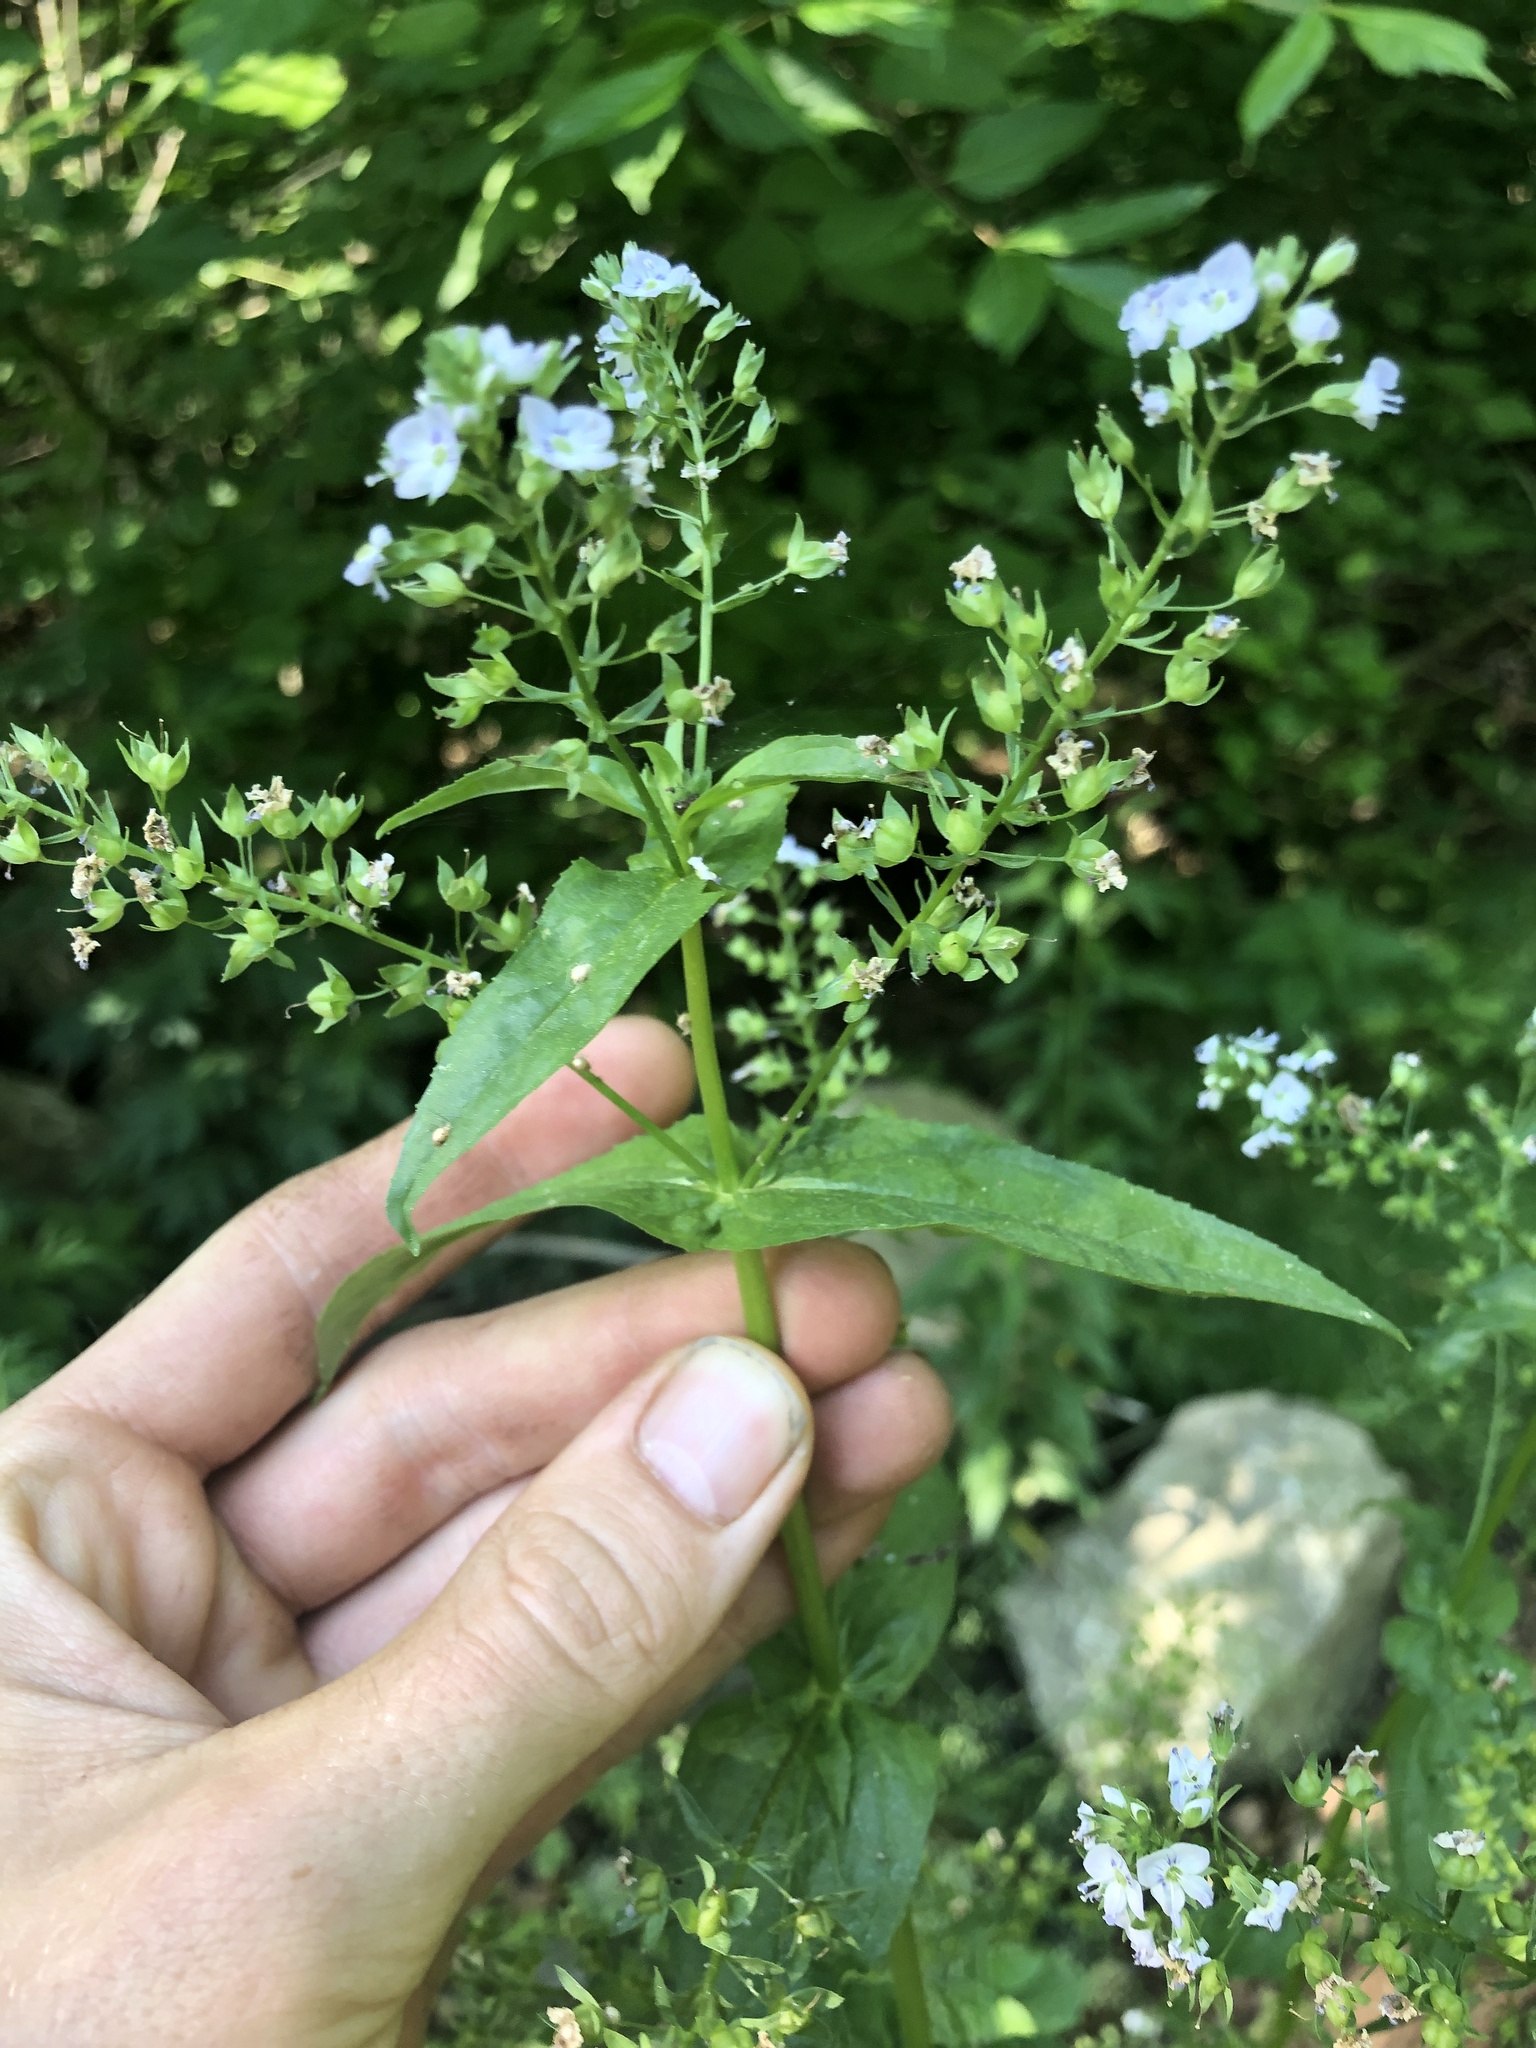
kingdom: Plantae
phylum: Tracheophyta
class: Magnoliopsida
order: Lamiales
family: Plantaginaceae
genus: Veronica
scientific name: Veronica anagallis-aquatica
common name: Water speedwell
